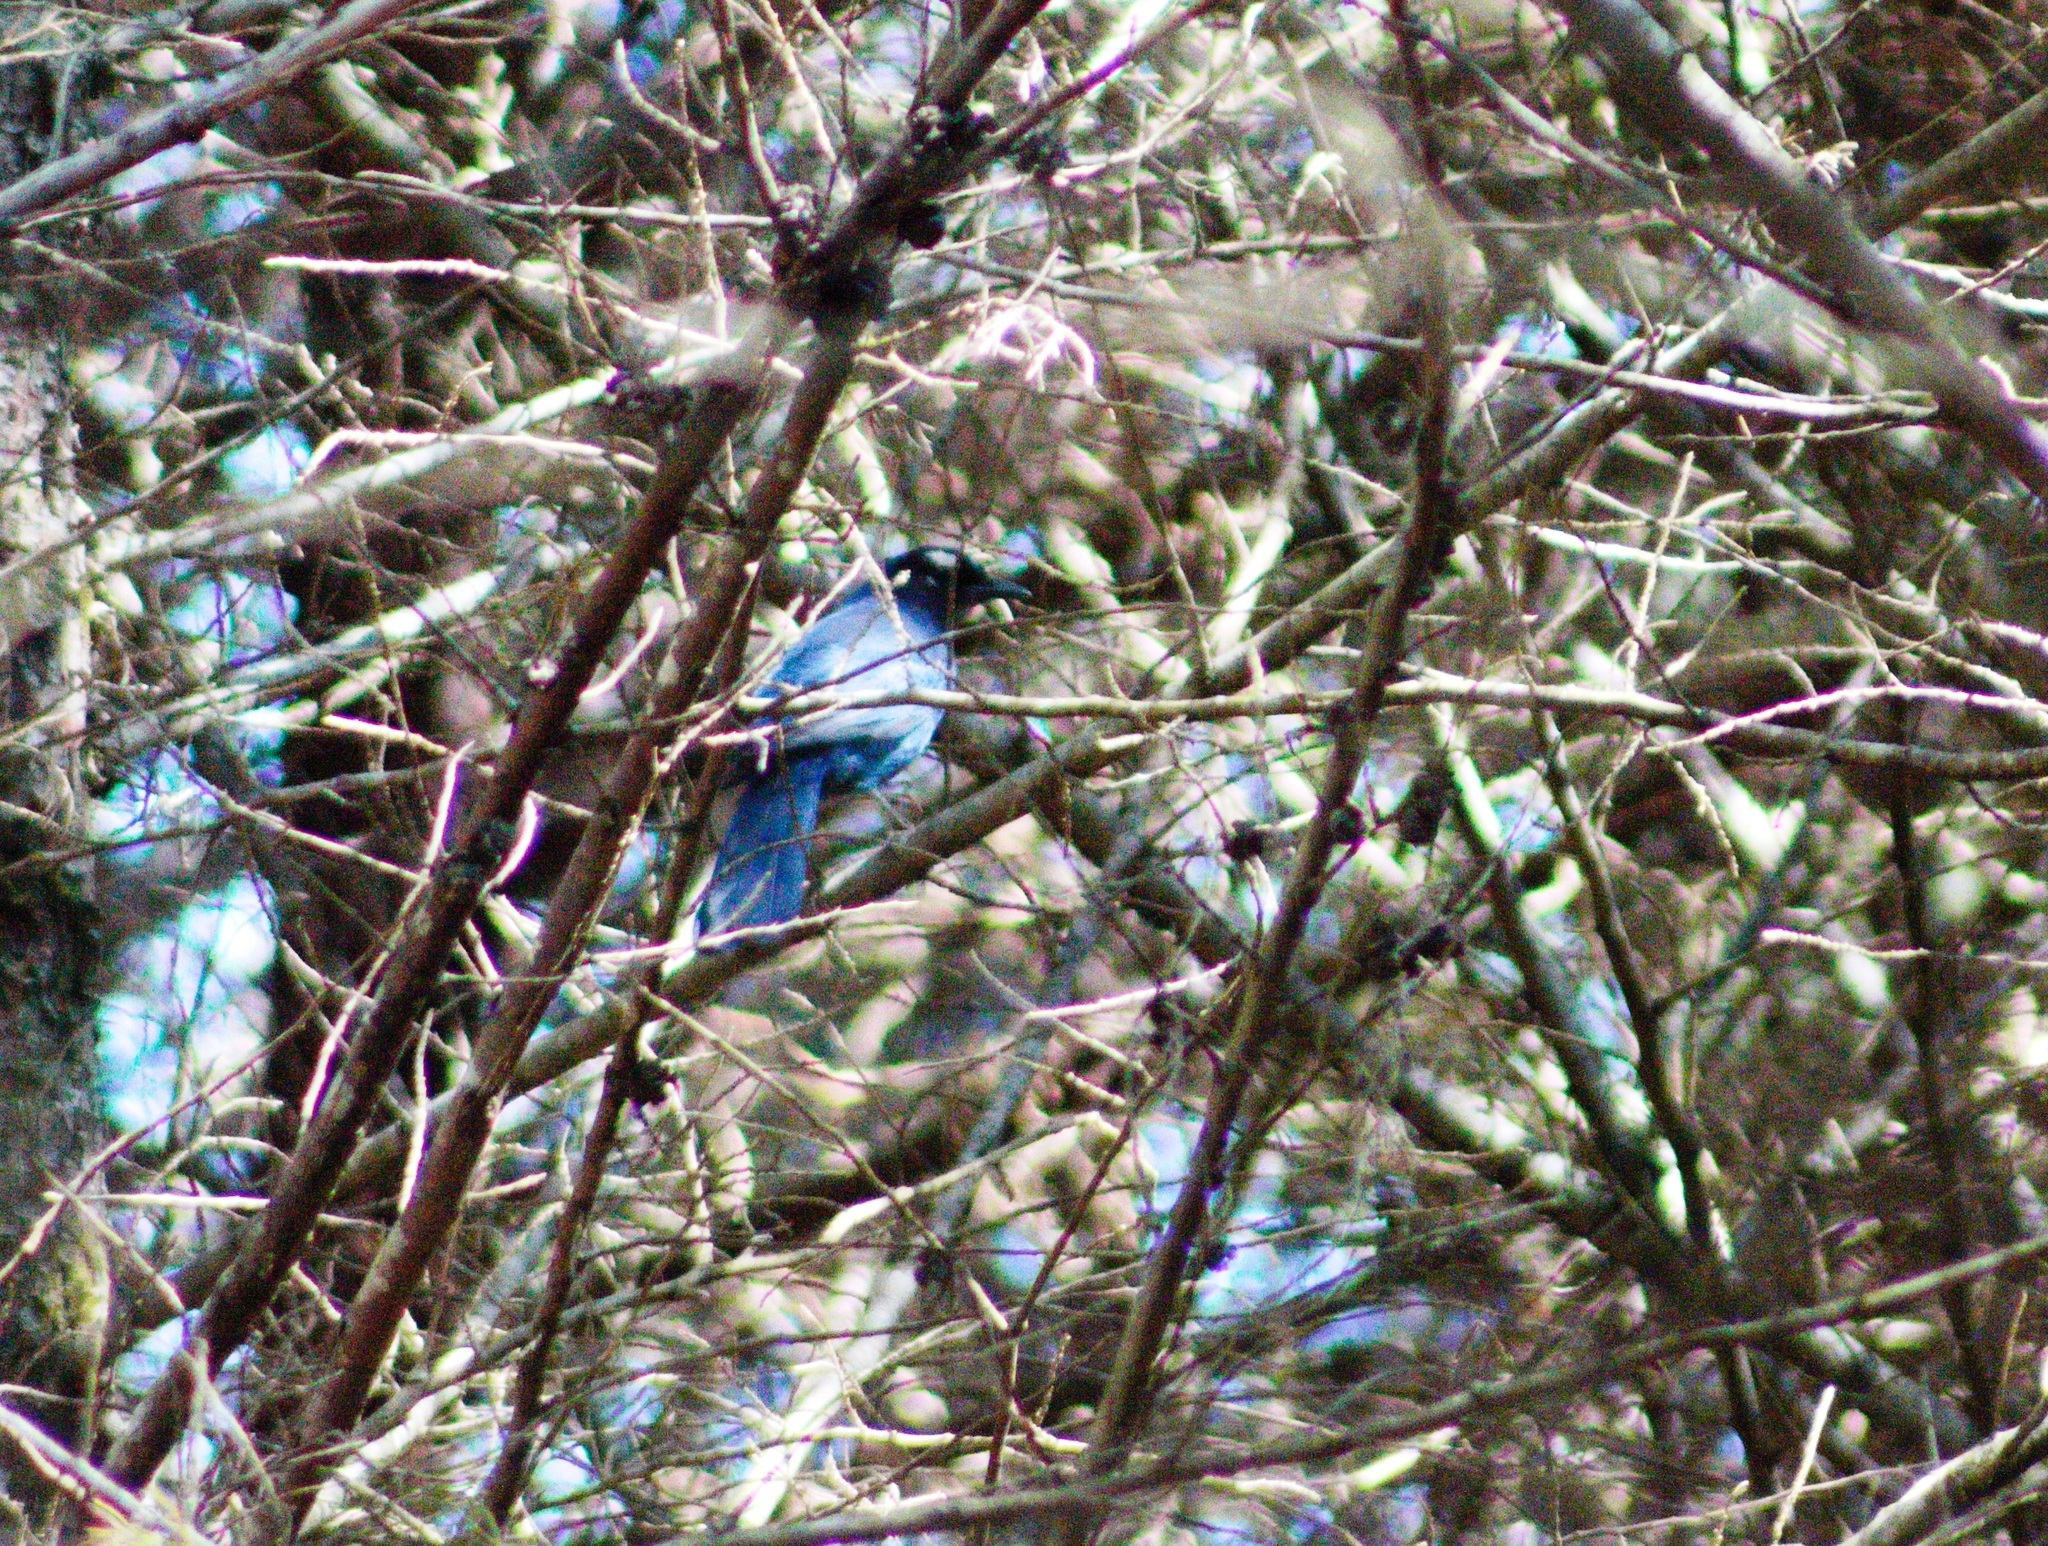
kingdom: Animalia
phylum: Chordata
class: Aves
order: Passeriformes
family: Corvidae
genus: Cyanocitta
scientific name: Cyanocitta stelleri
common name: Steller's jay
